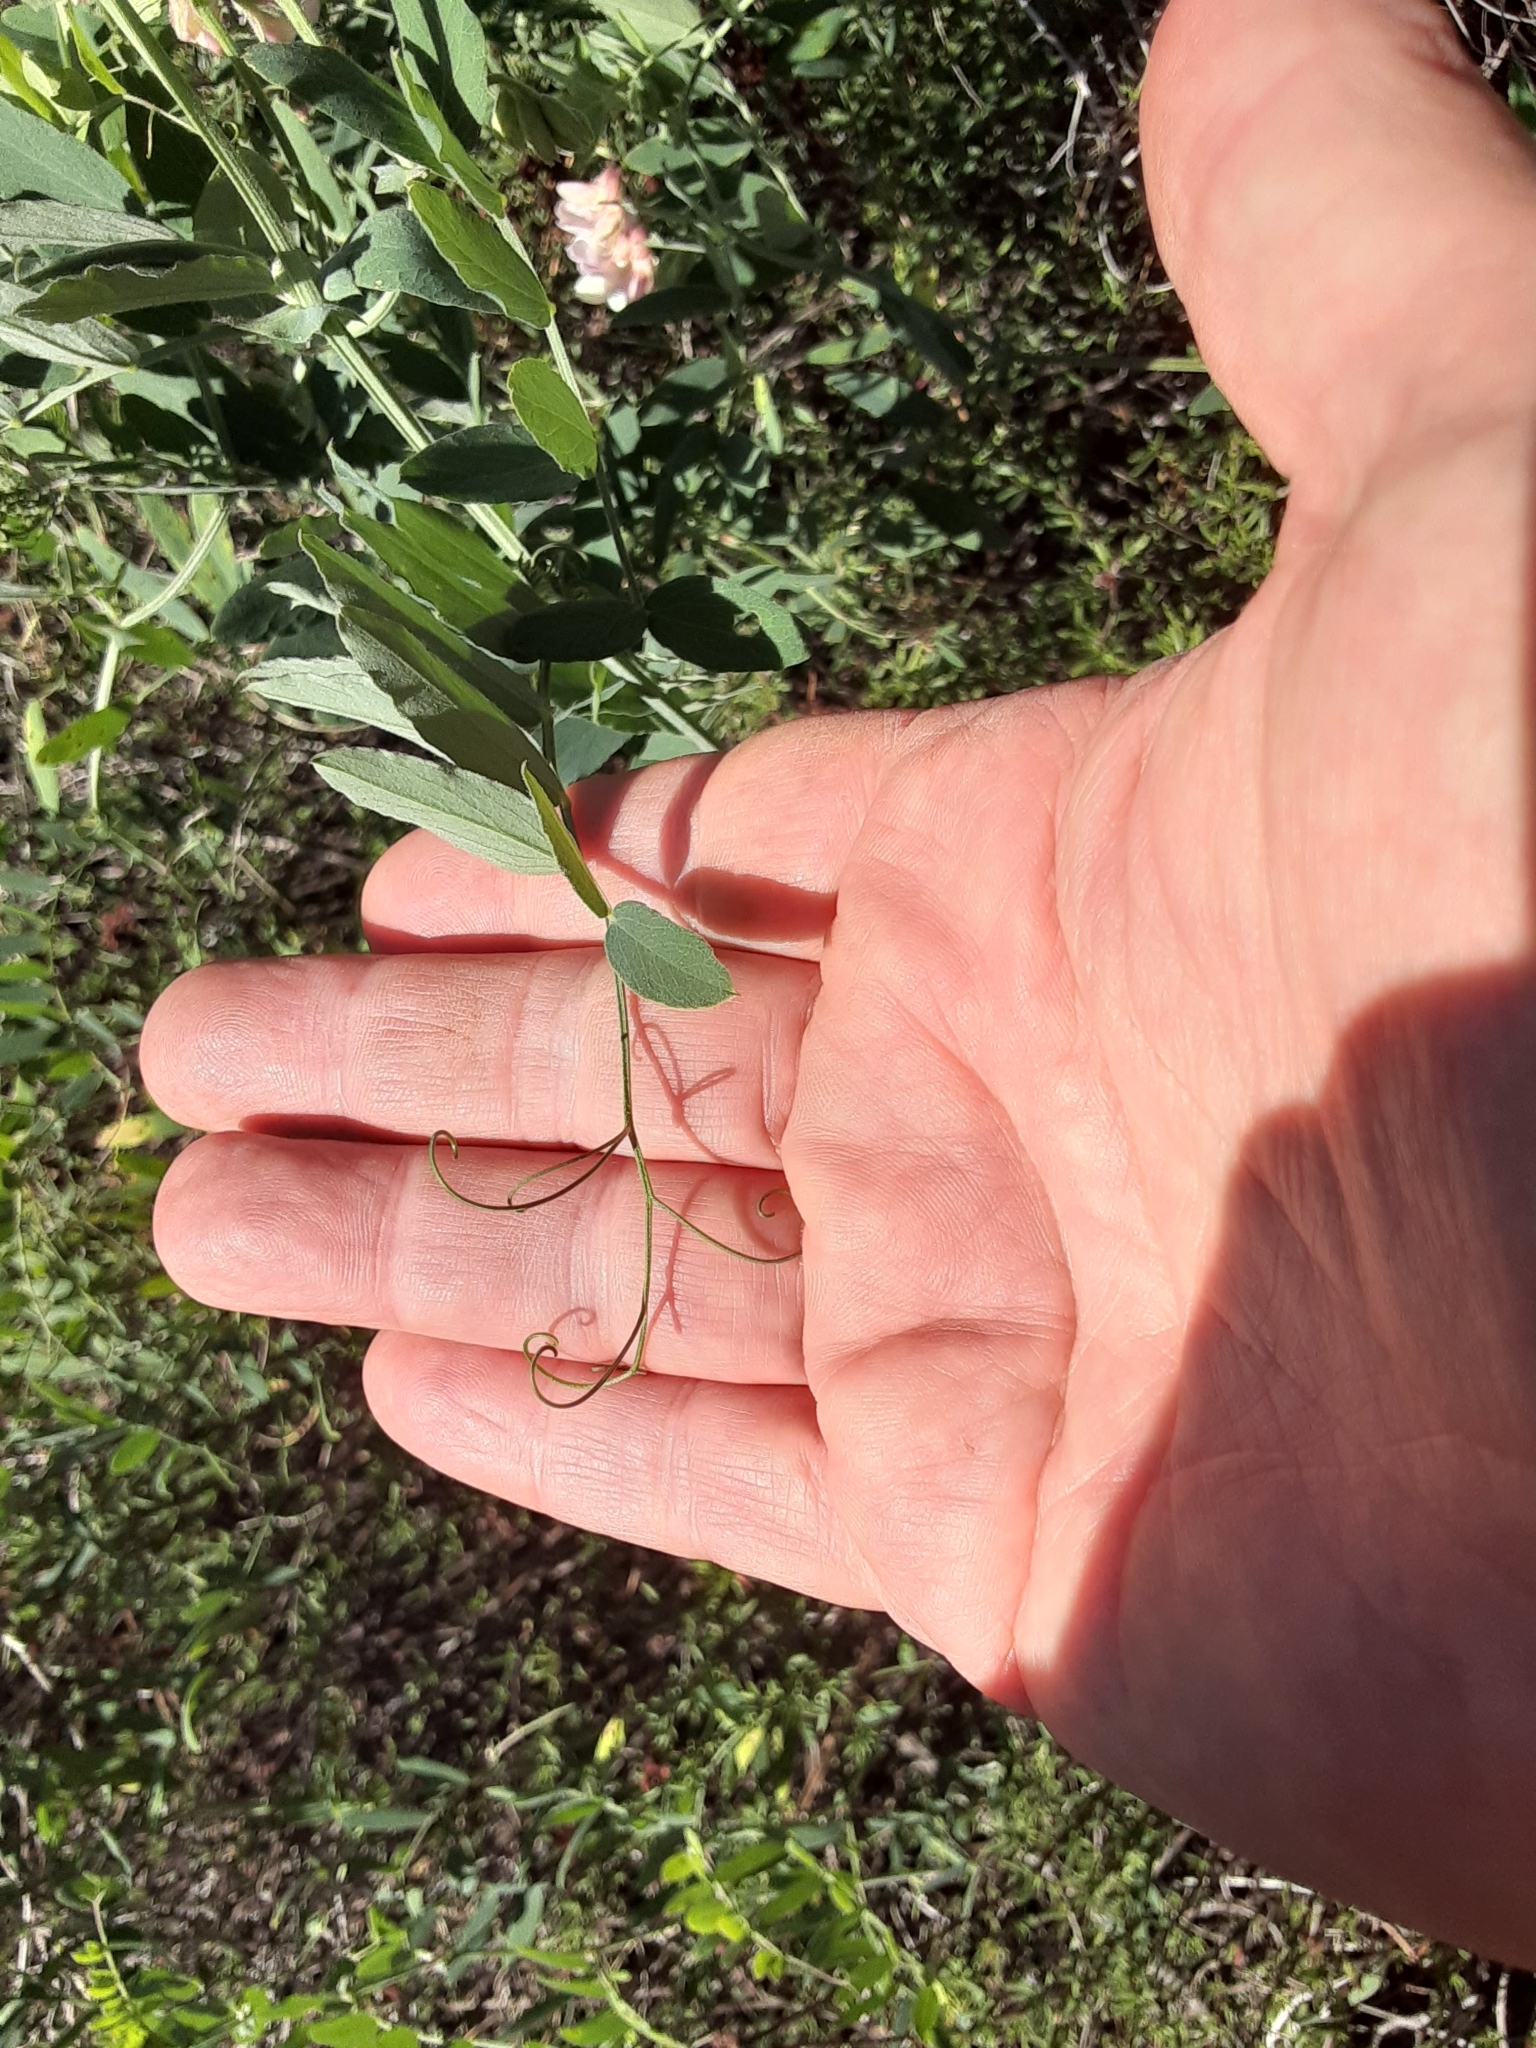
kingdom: Plantae
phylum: Tracheophyta
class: Magnoliopsida
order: Fabales
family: Fabaceae
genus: Lathyrus
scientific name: Lathyrus vestitus
